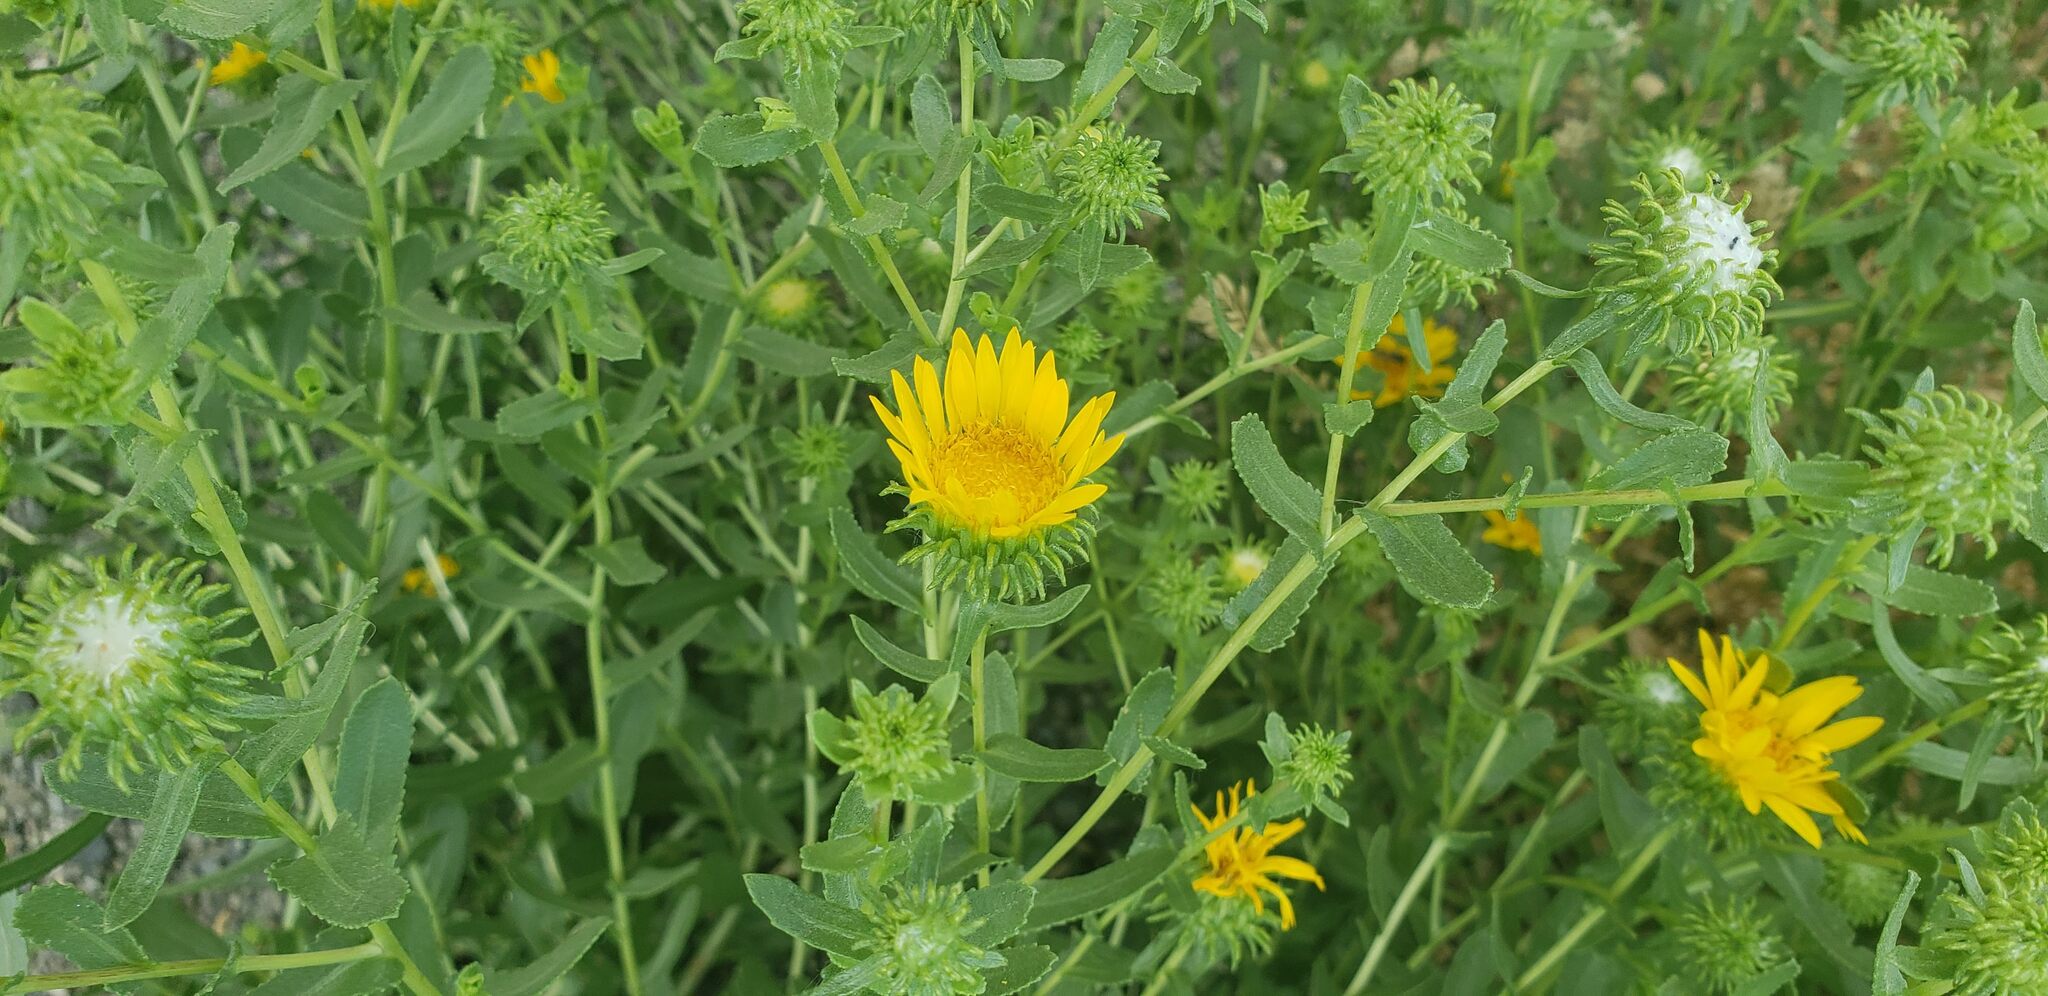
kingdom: Plantae
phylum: Tracheophyta
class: Magnoliopsida
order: Asterales
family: Asteraceae
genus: Grindelia
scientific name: Grindelia squarrosa
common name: Curly-cup gumweed
